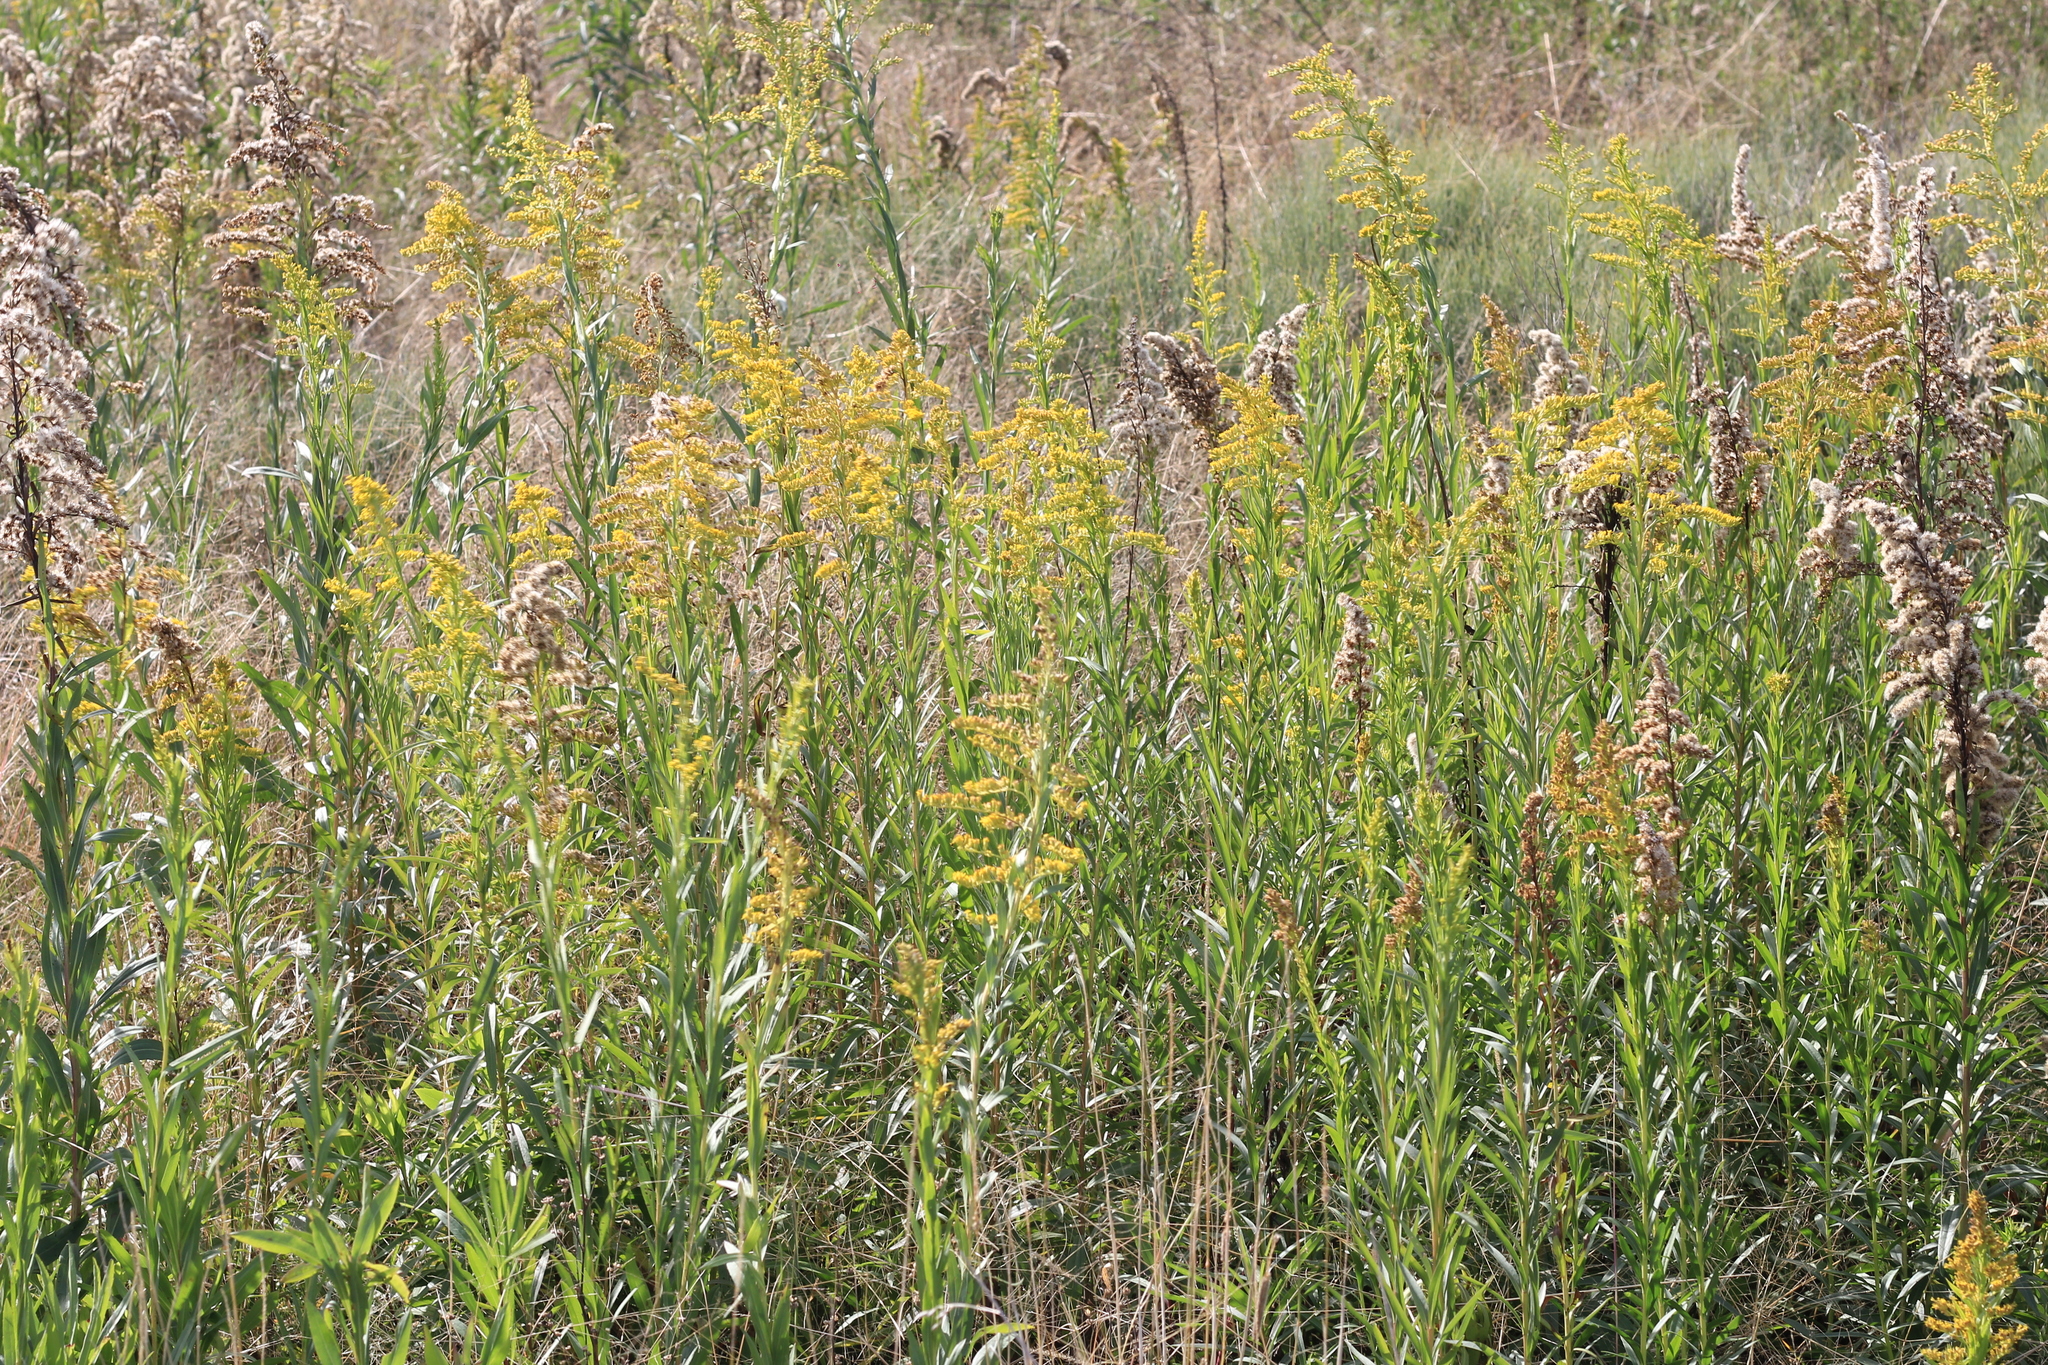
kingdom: Plantae
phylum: Tracheophyta
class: Magnoliopsida
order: Asterales
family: Asteraceae
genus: Solidago
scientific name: Solidago chilensis
